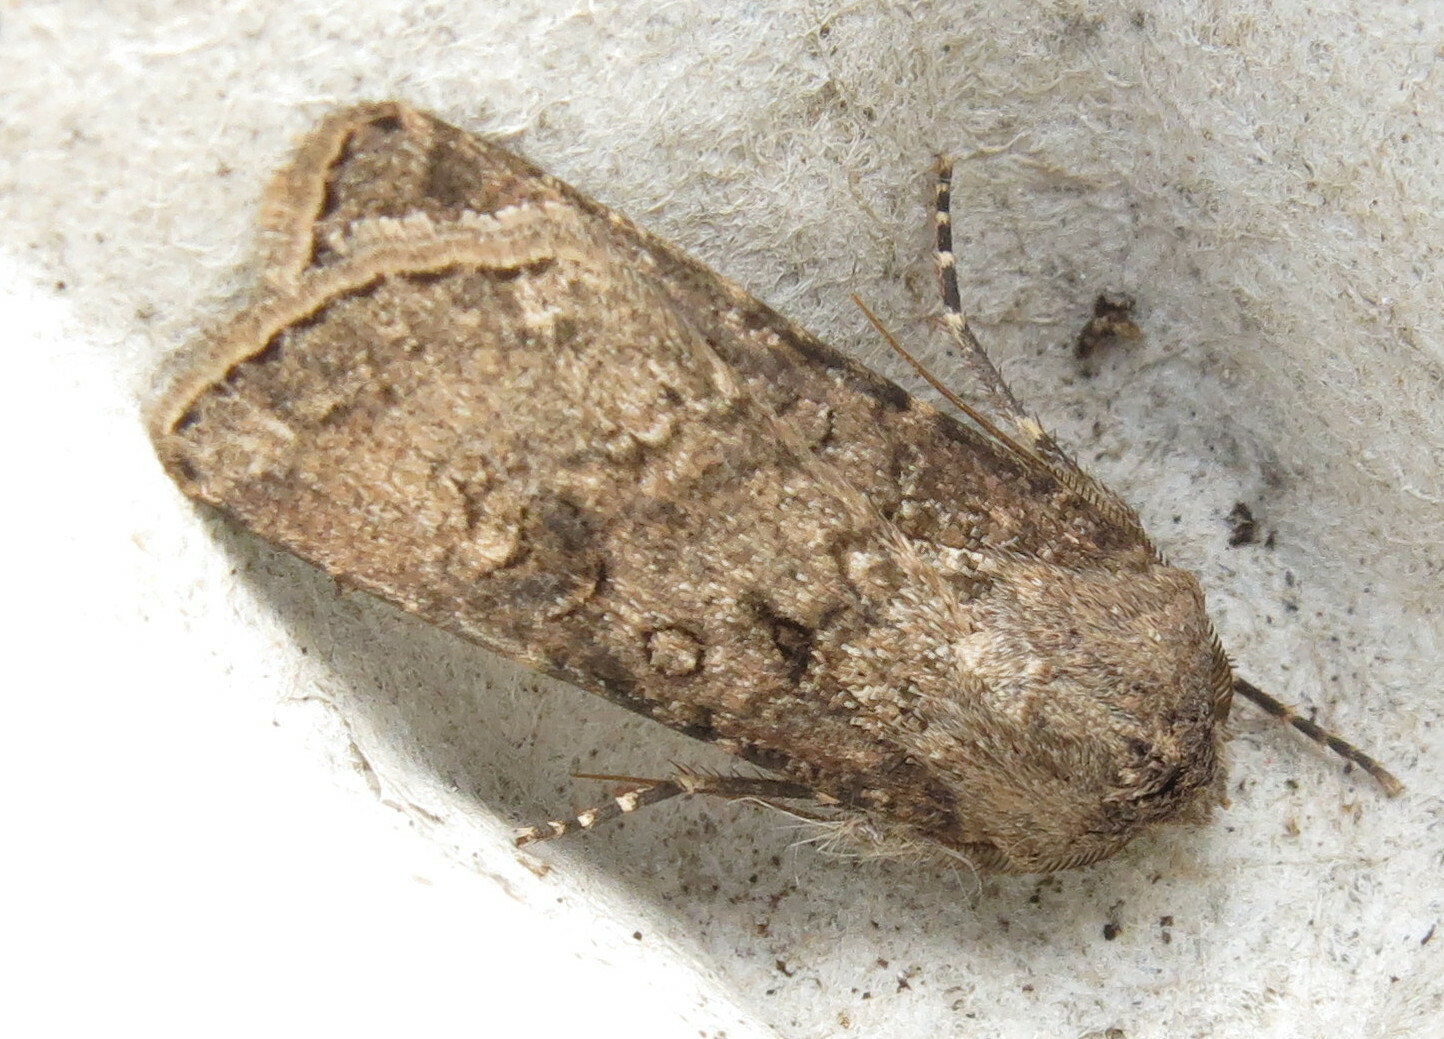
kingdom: Animalia
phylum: Arthropoda
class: Insecta
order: Lepidoptera
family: Noctuidae
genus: Agrotis
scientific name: Agrotis segetum
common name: Turnip moth
